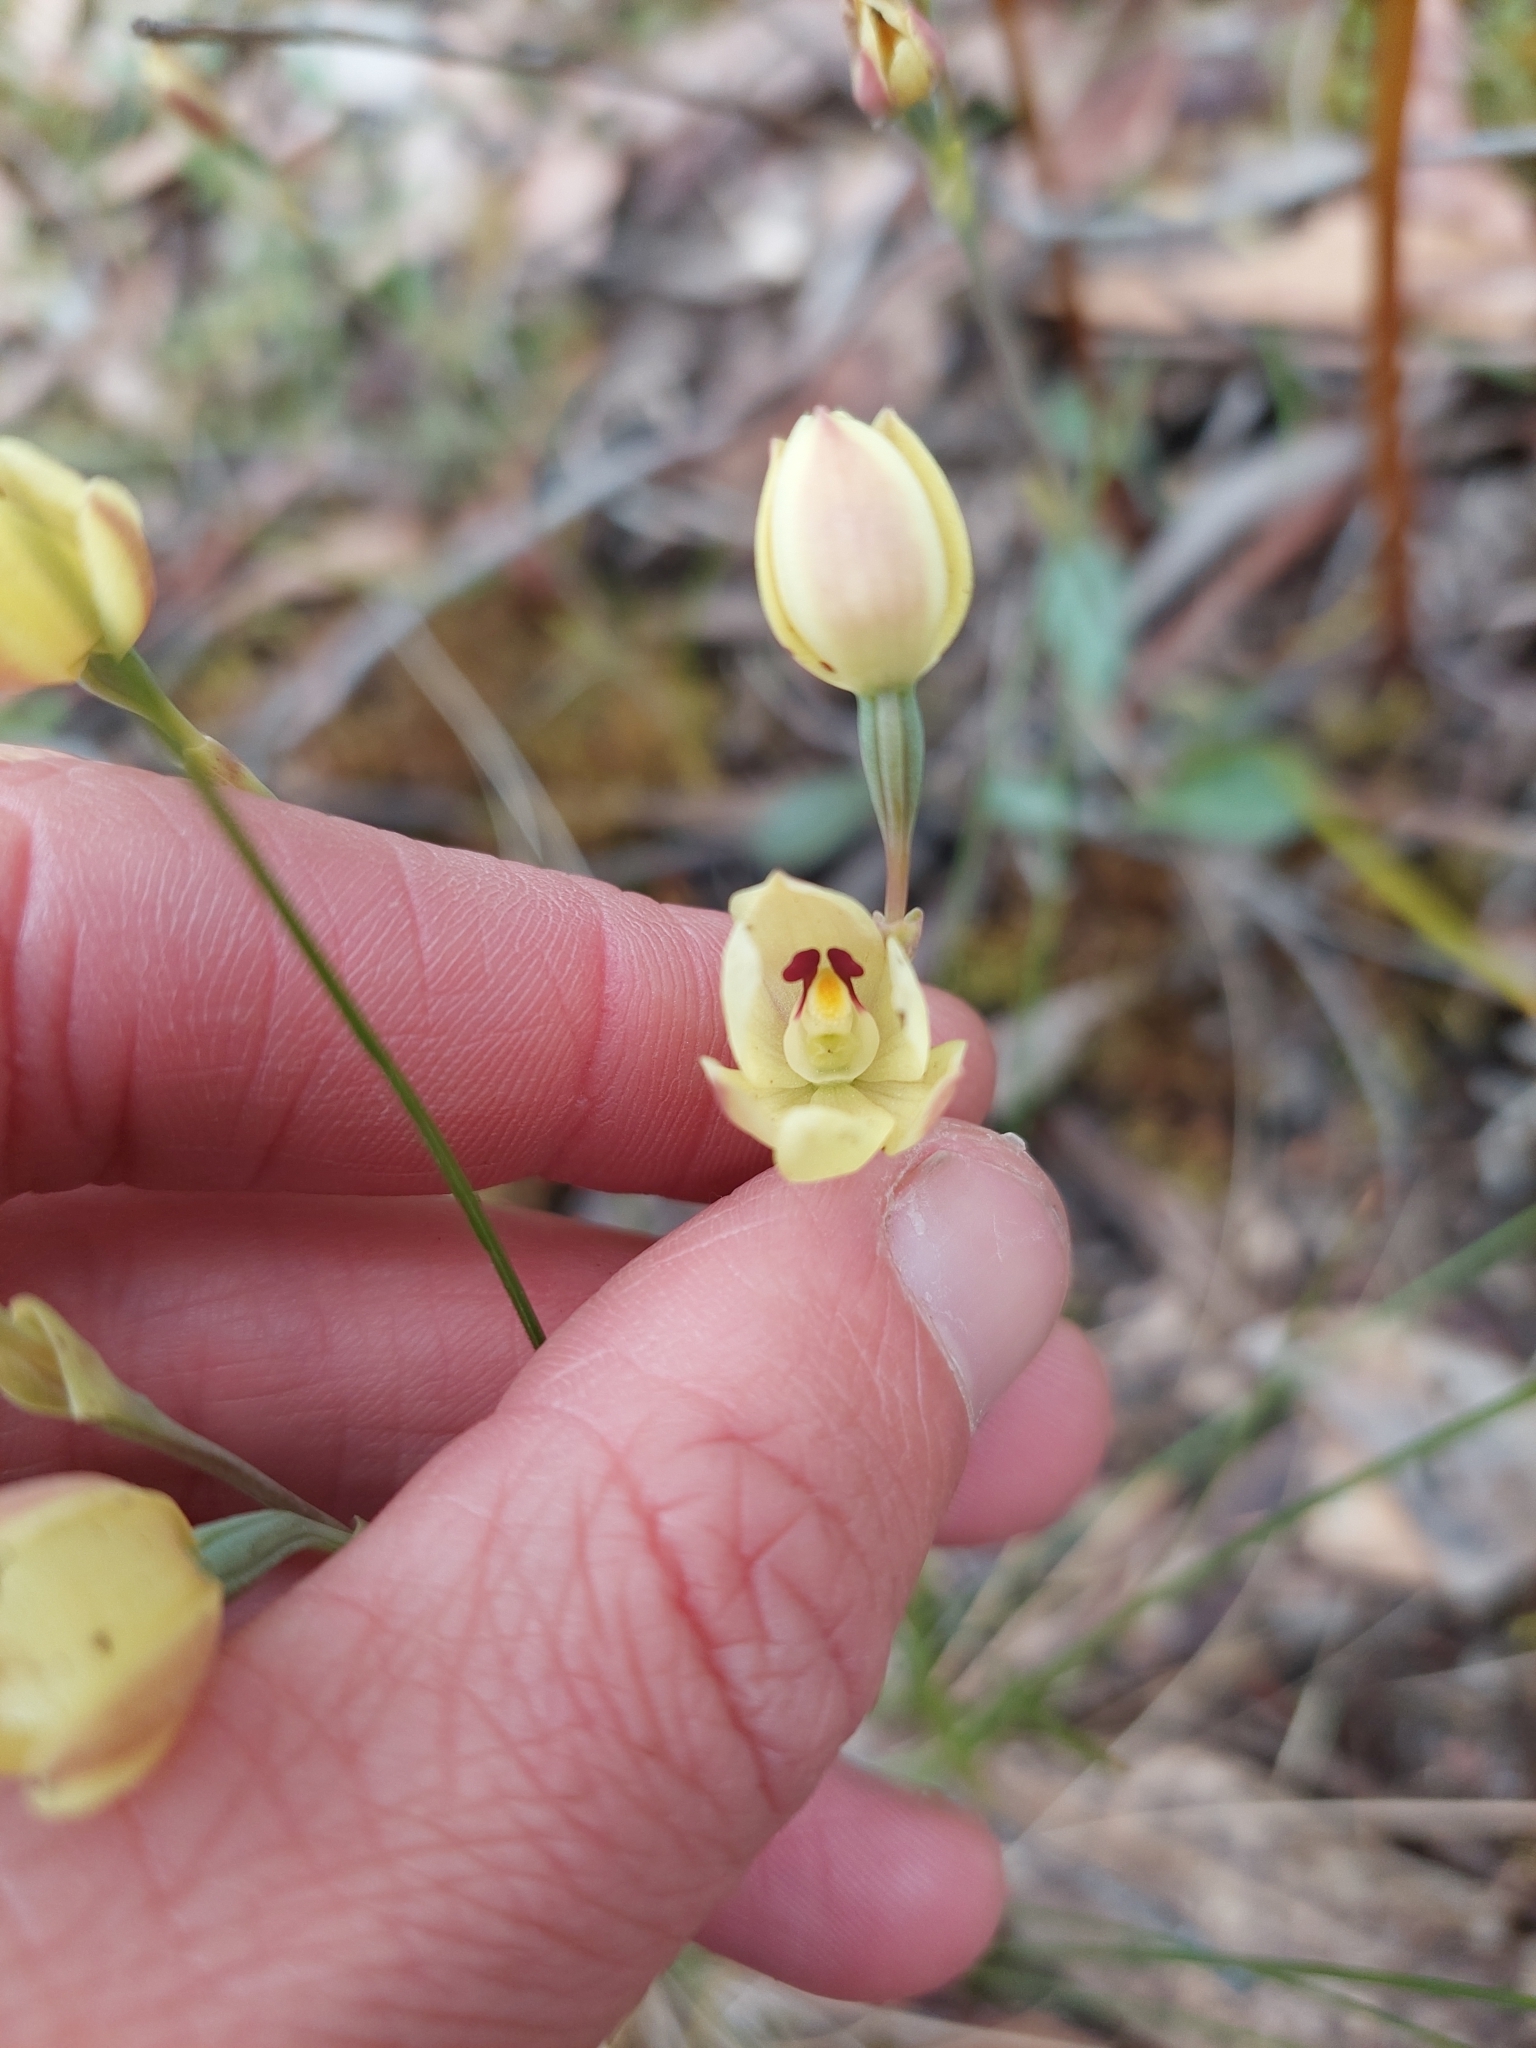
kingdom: Plantae
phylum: Tracheophyta
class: Liliopsida
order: Asparagales
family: Orchidaceae
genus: Thelymitra
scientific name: Thelymitra antennifera
